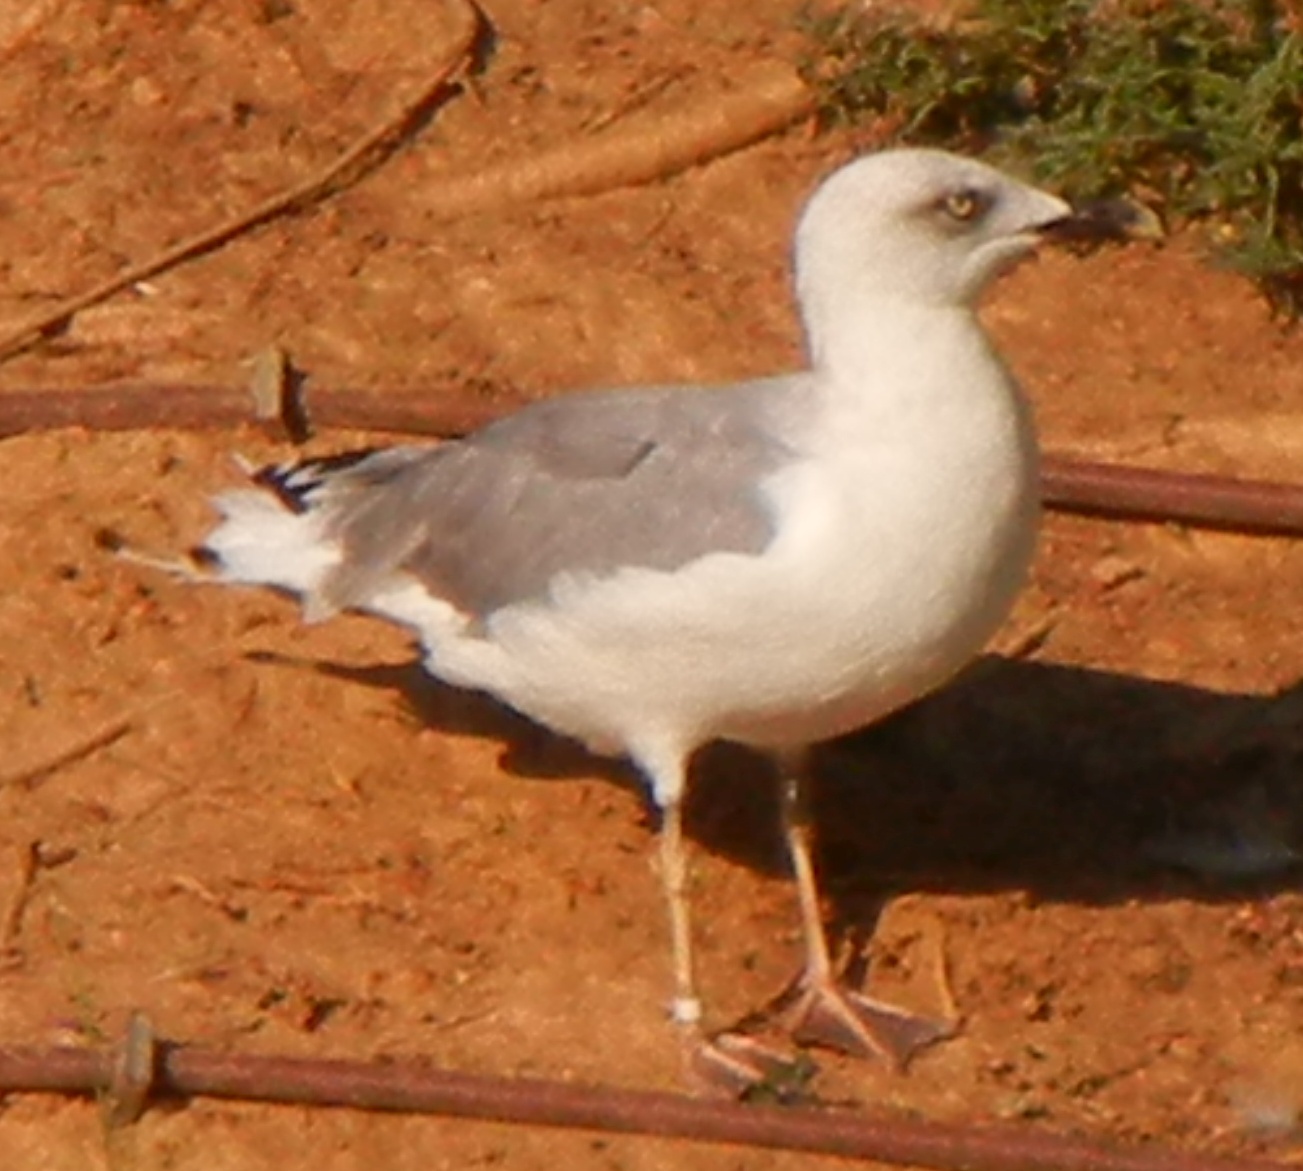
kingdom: Animalia
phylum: Chordata
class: Aves
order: Charadriiformes
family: Laridae
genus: Larus
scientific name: Larus michahellis
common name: Yellow-legged gull
